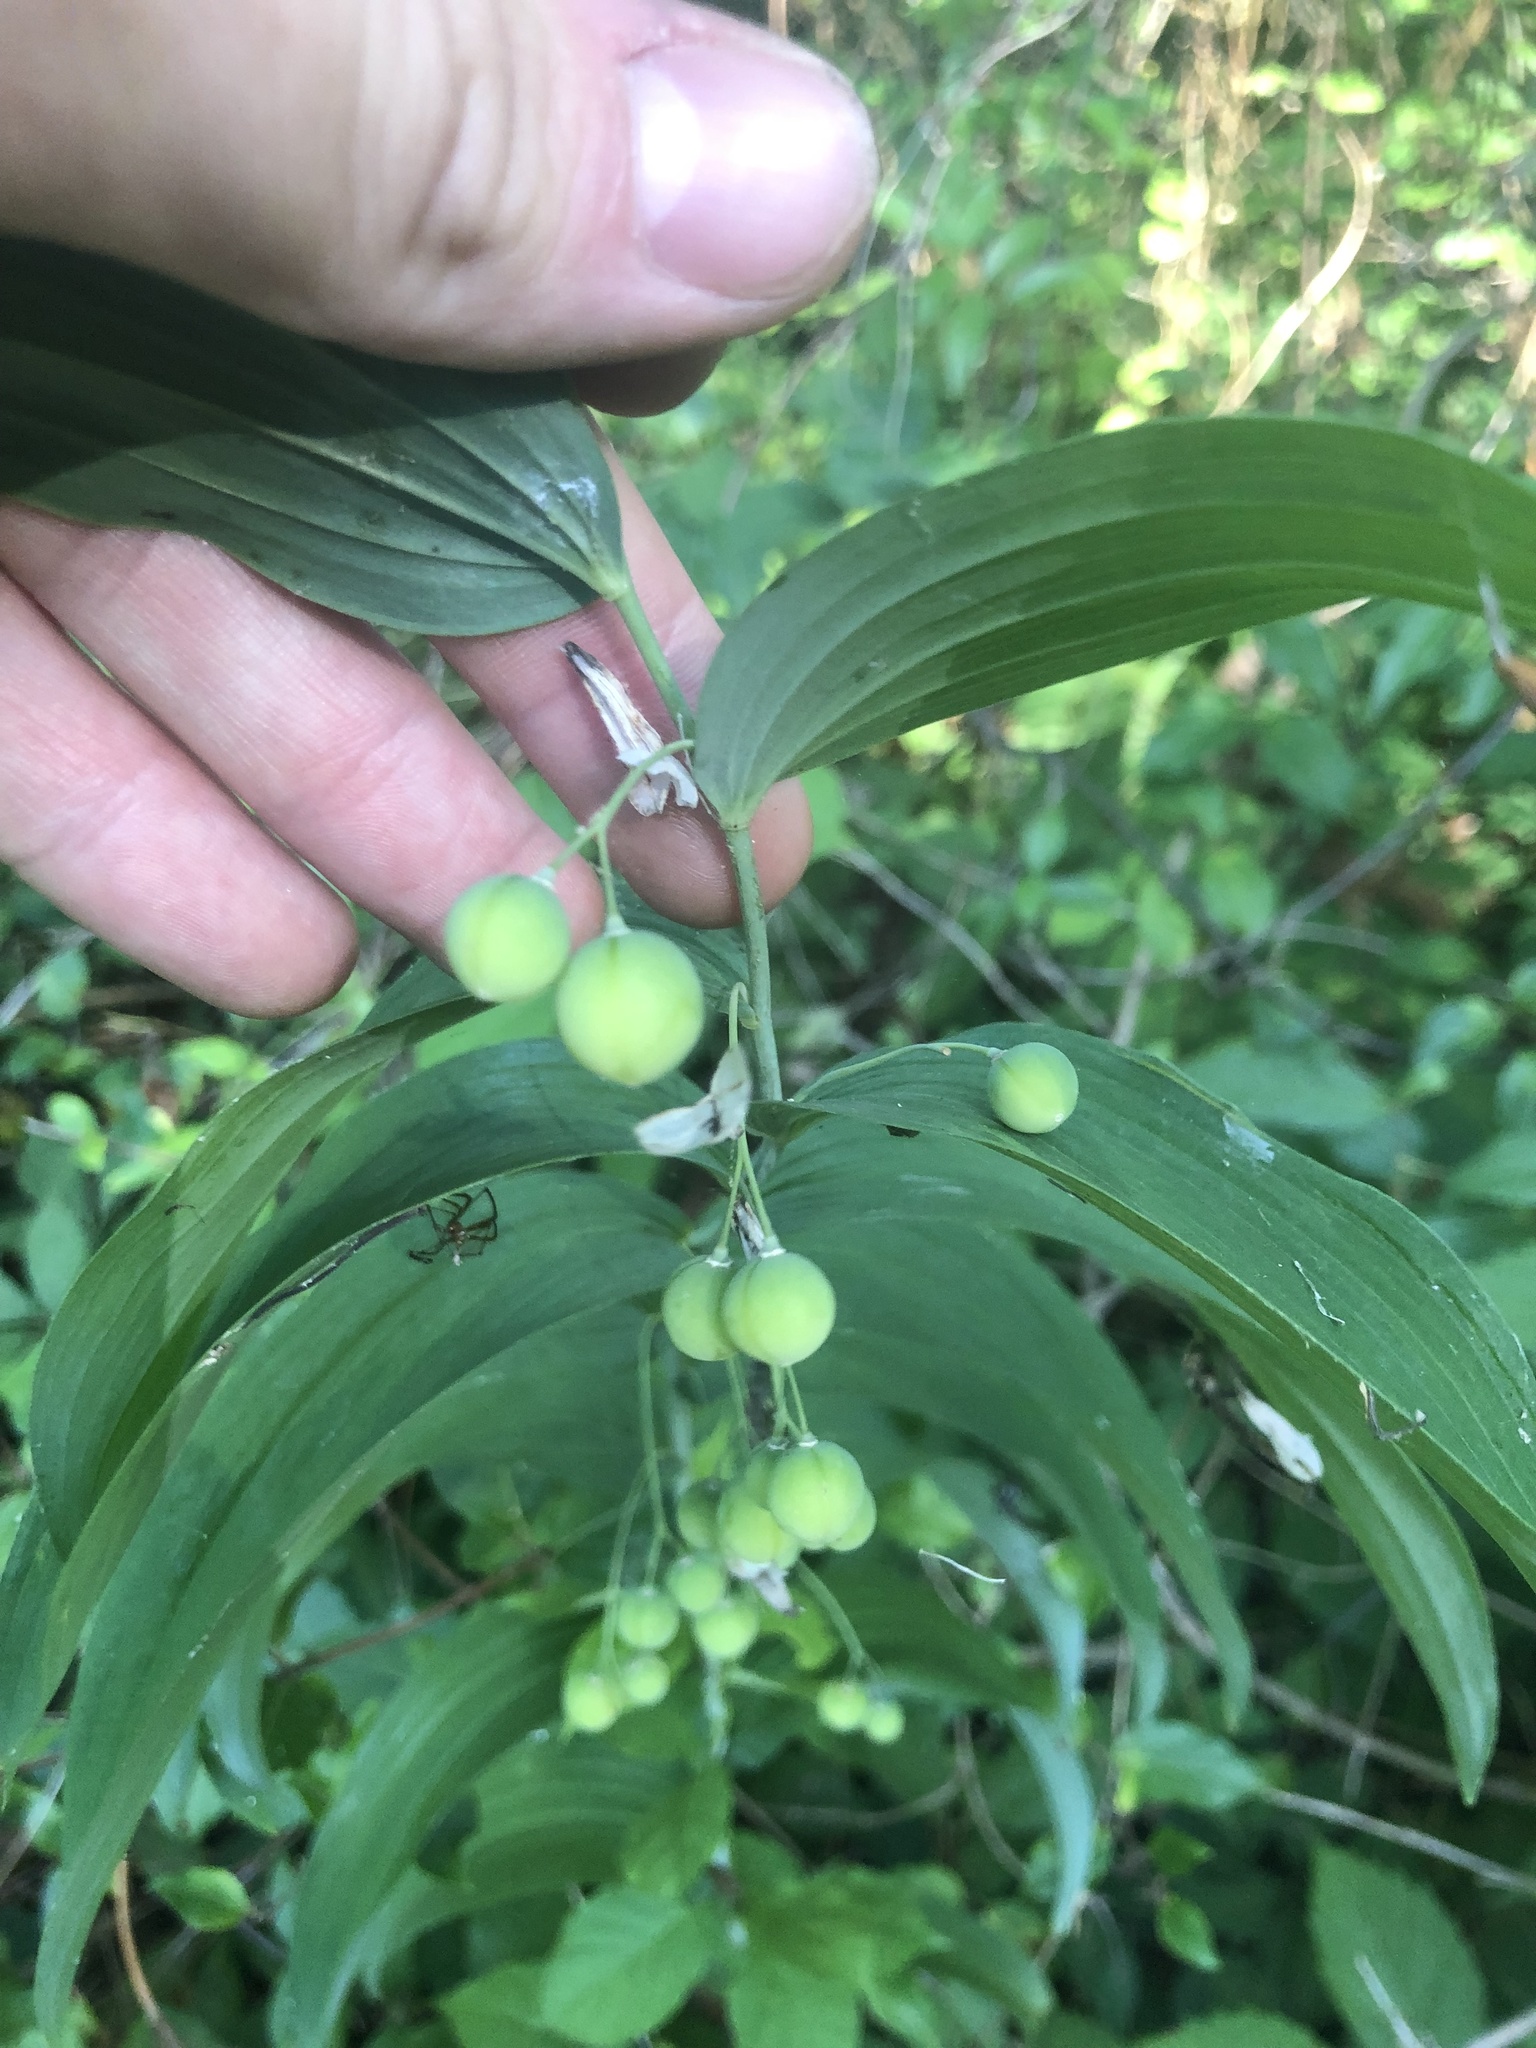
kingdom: Plantae
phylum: Tracheophyta
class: Liliopsida
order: Asparagales
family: Asparagaceae
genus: Polygonatum
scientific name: Polygonatum biflorum
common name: American solomon's-seal
